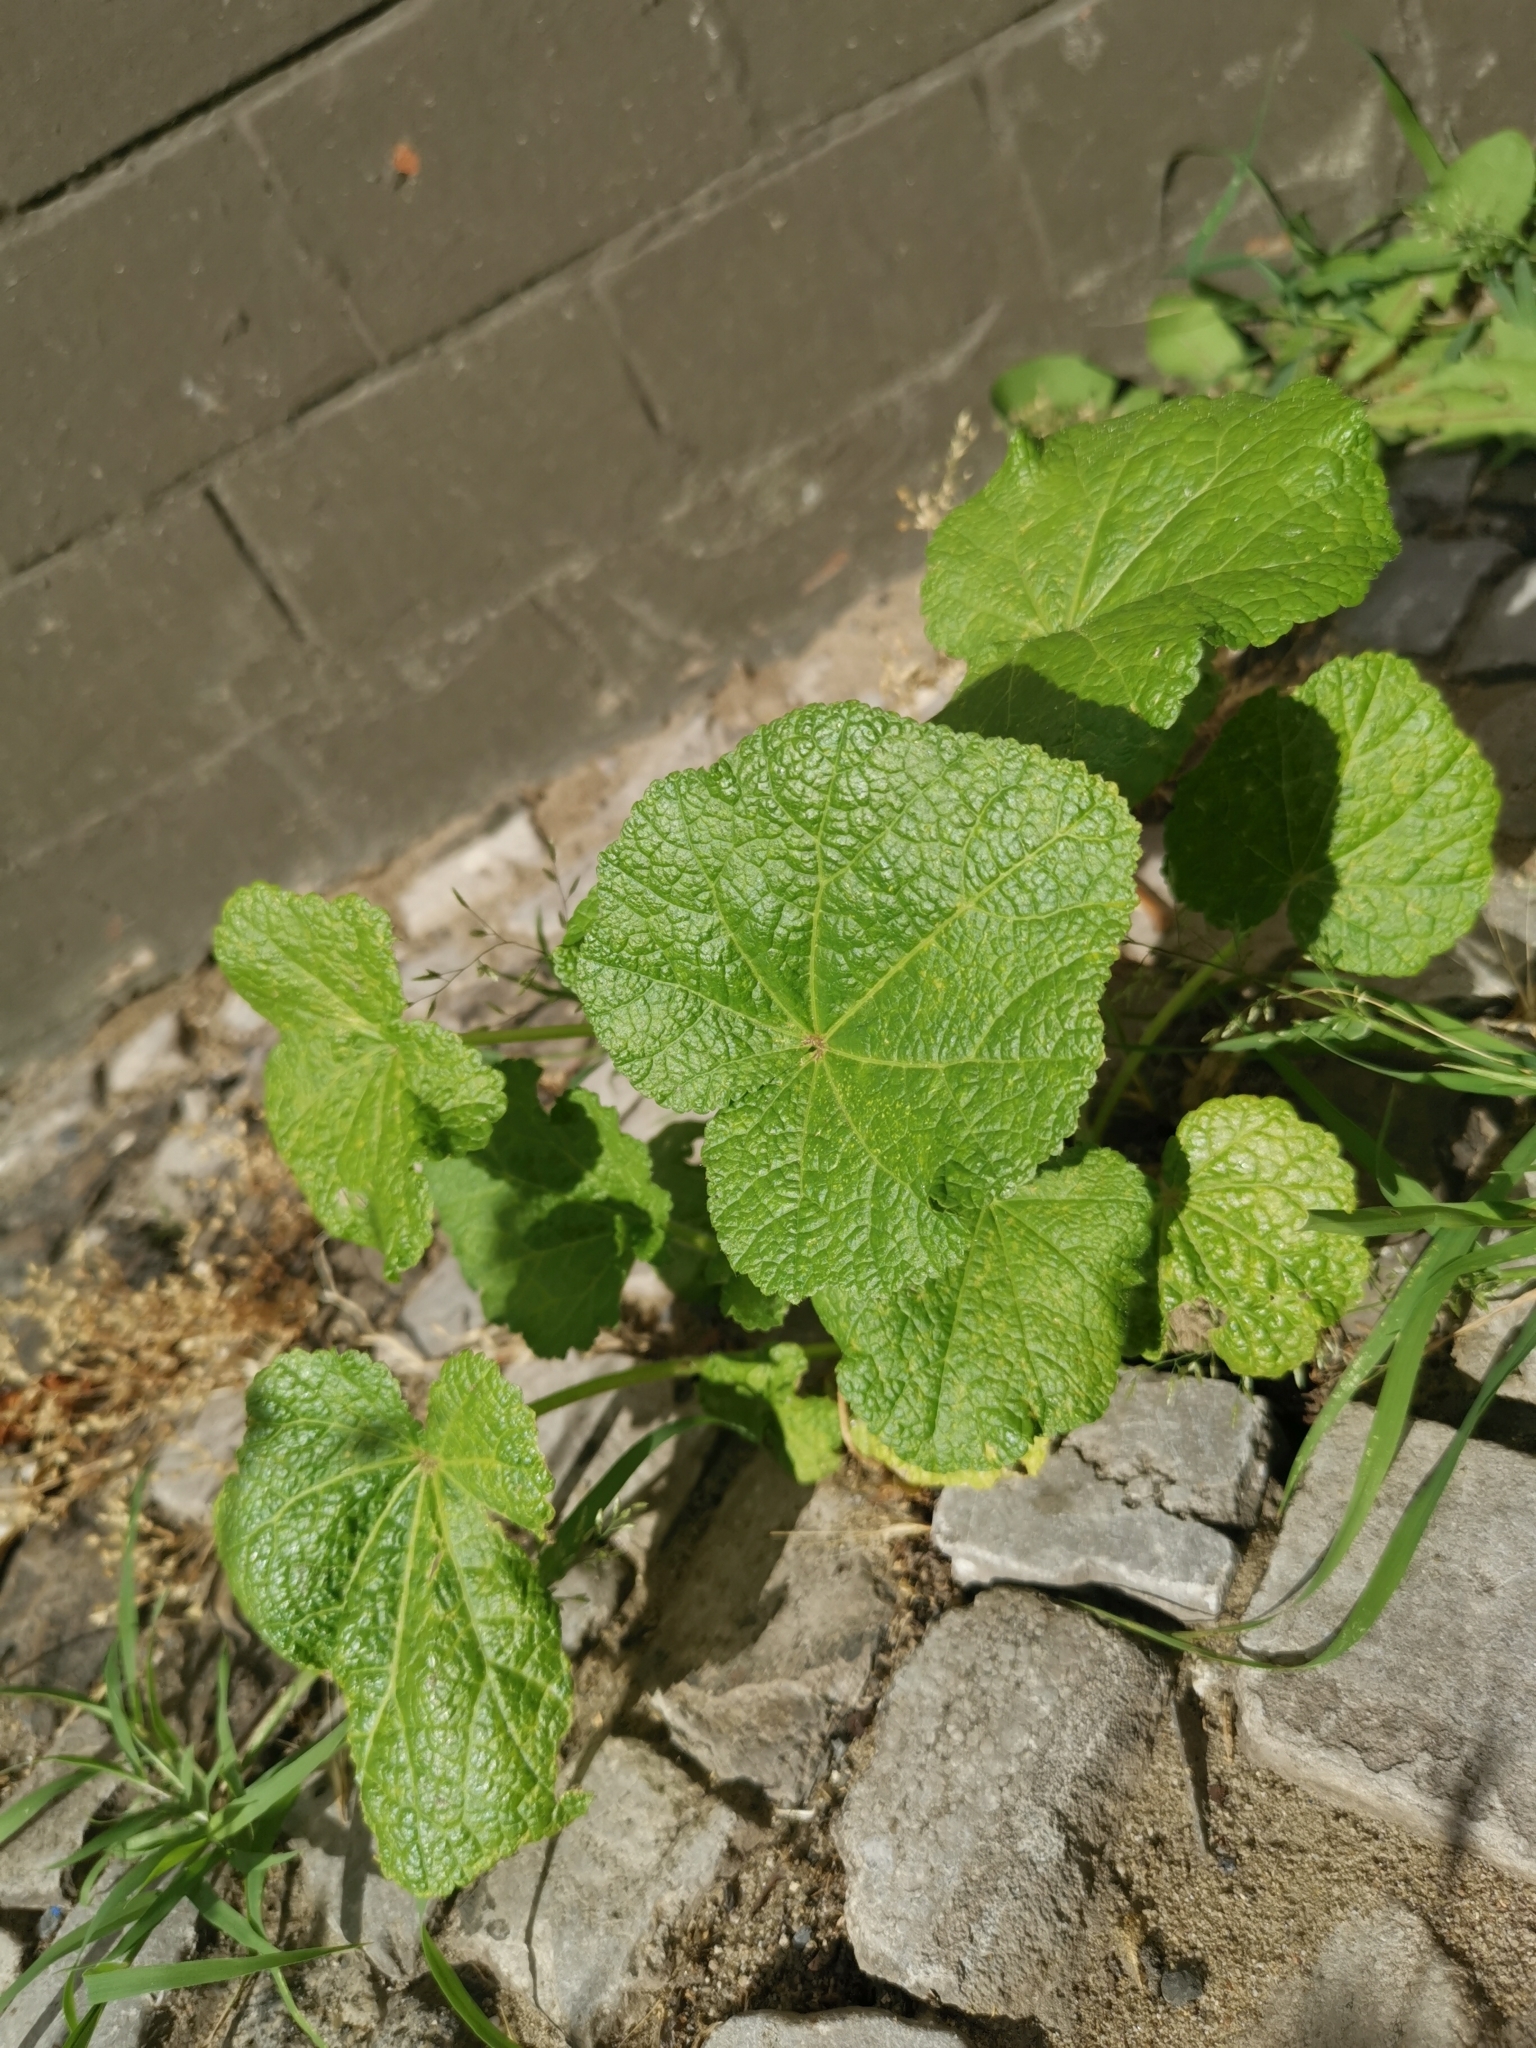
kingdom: Plantae
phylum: Tracheophyta
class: Magnoliopsida
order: Malvales
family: Malvaceae
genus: Alcea
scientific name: Alcea rosea
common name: Hollyhock
